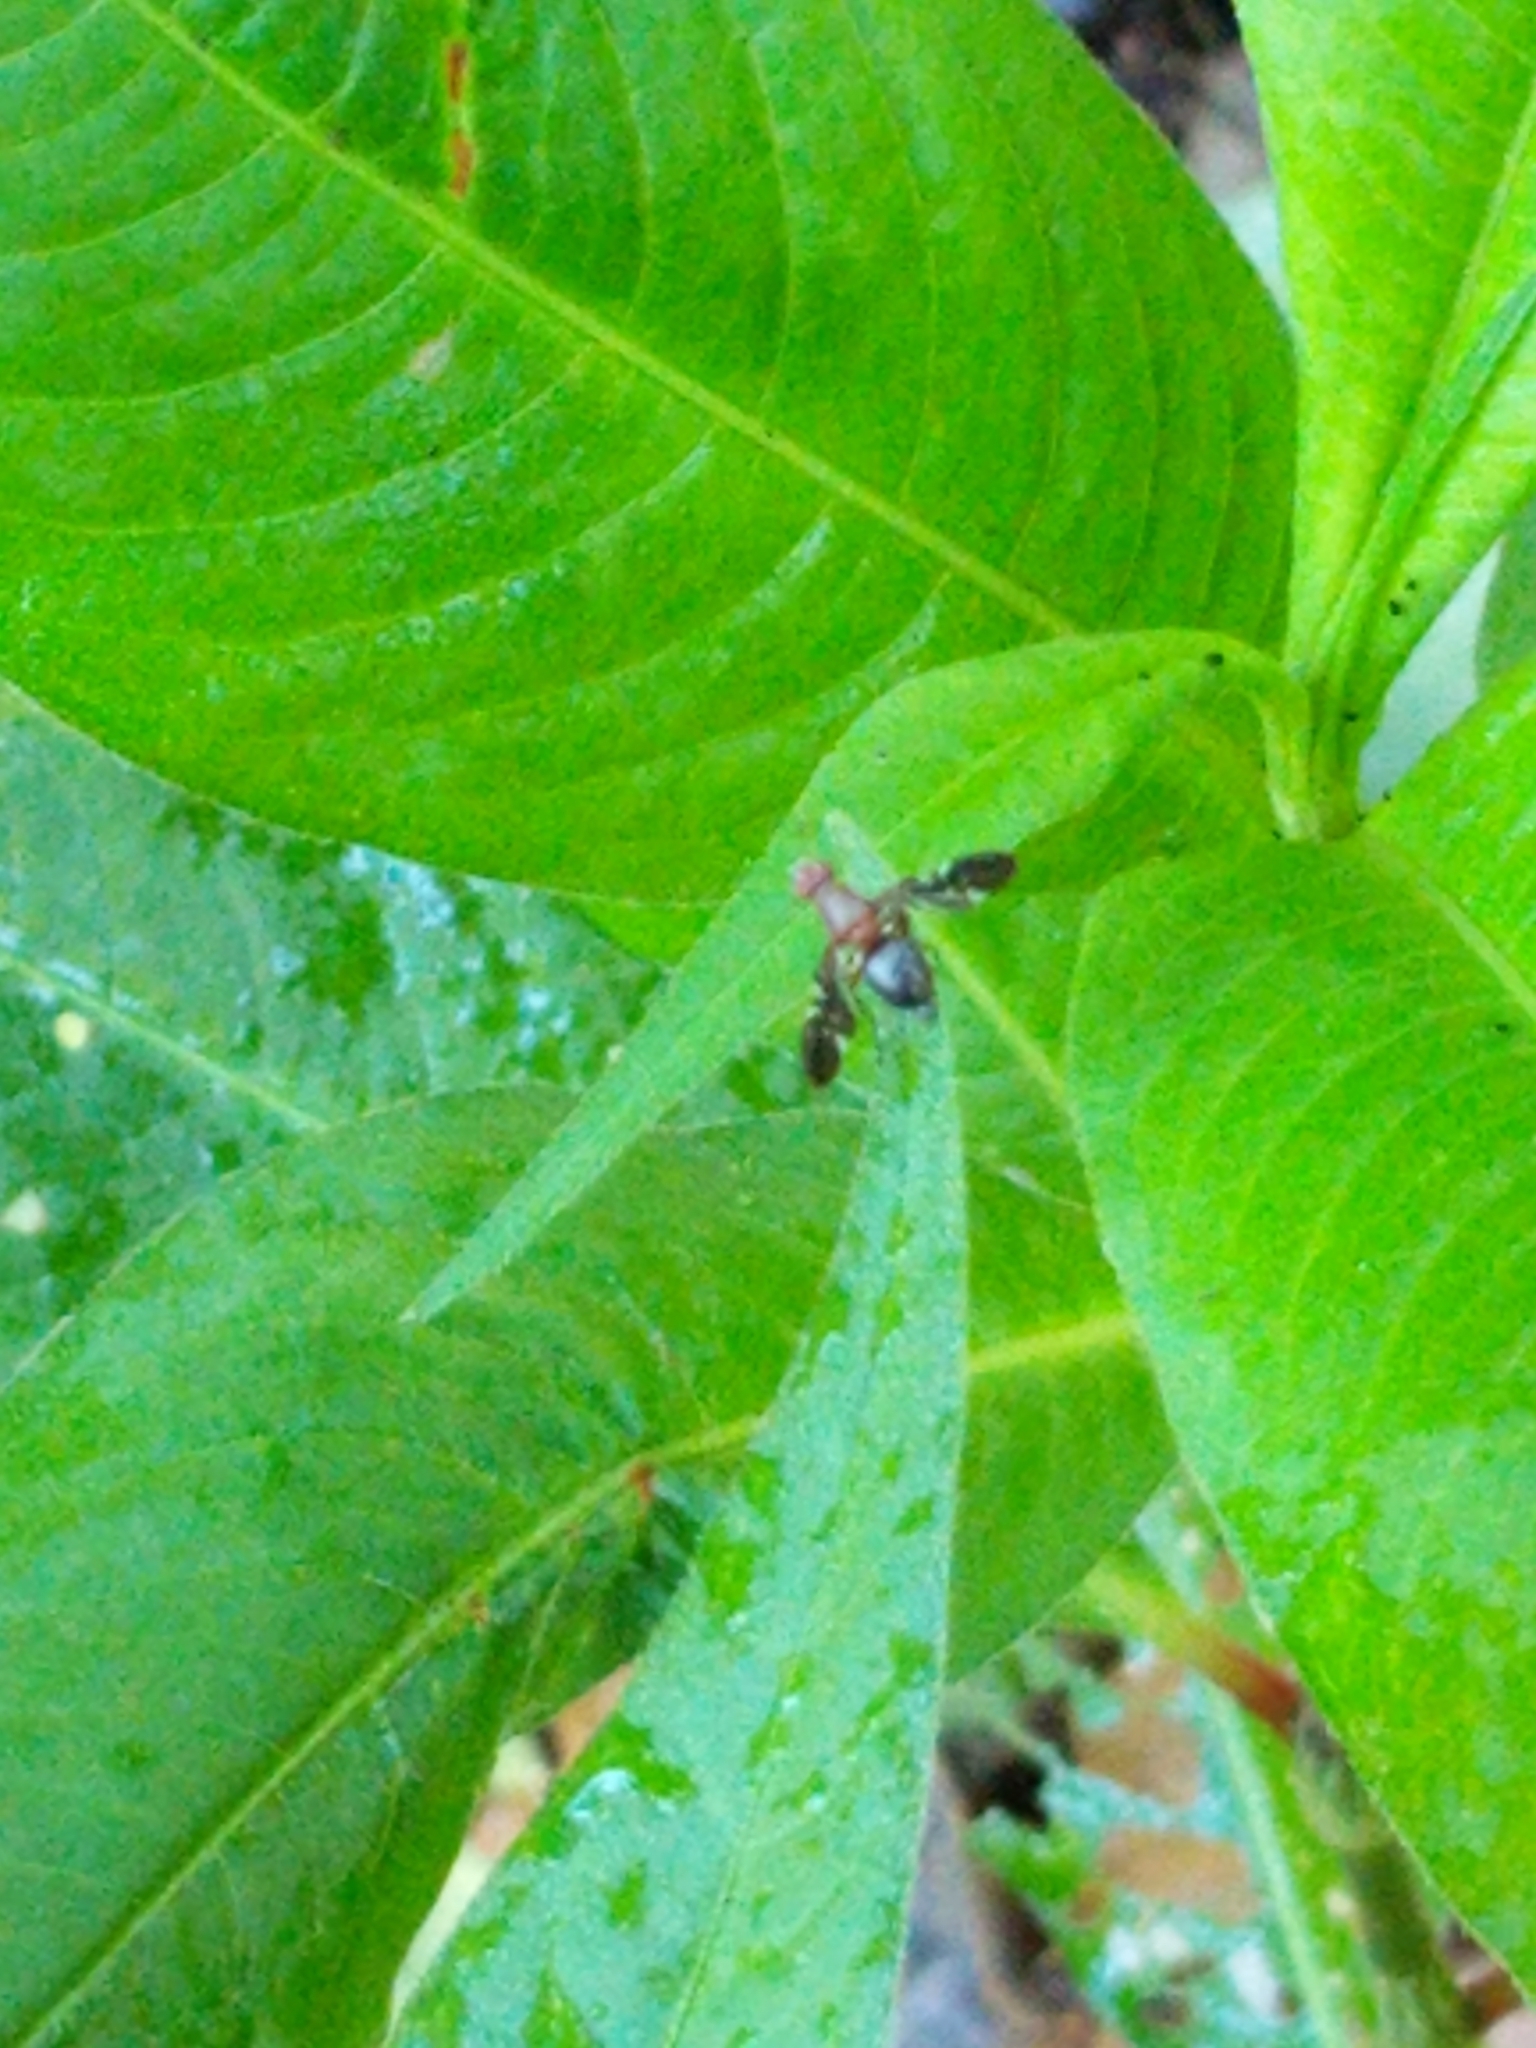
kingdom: Animalia
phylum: Arthropoda
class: Insecta
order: Diptera
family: Ulidiidae
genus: Delphinia
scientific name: Delphinia picta
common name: Common picture-winged fly
